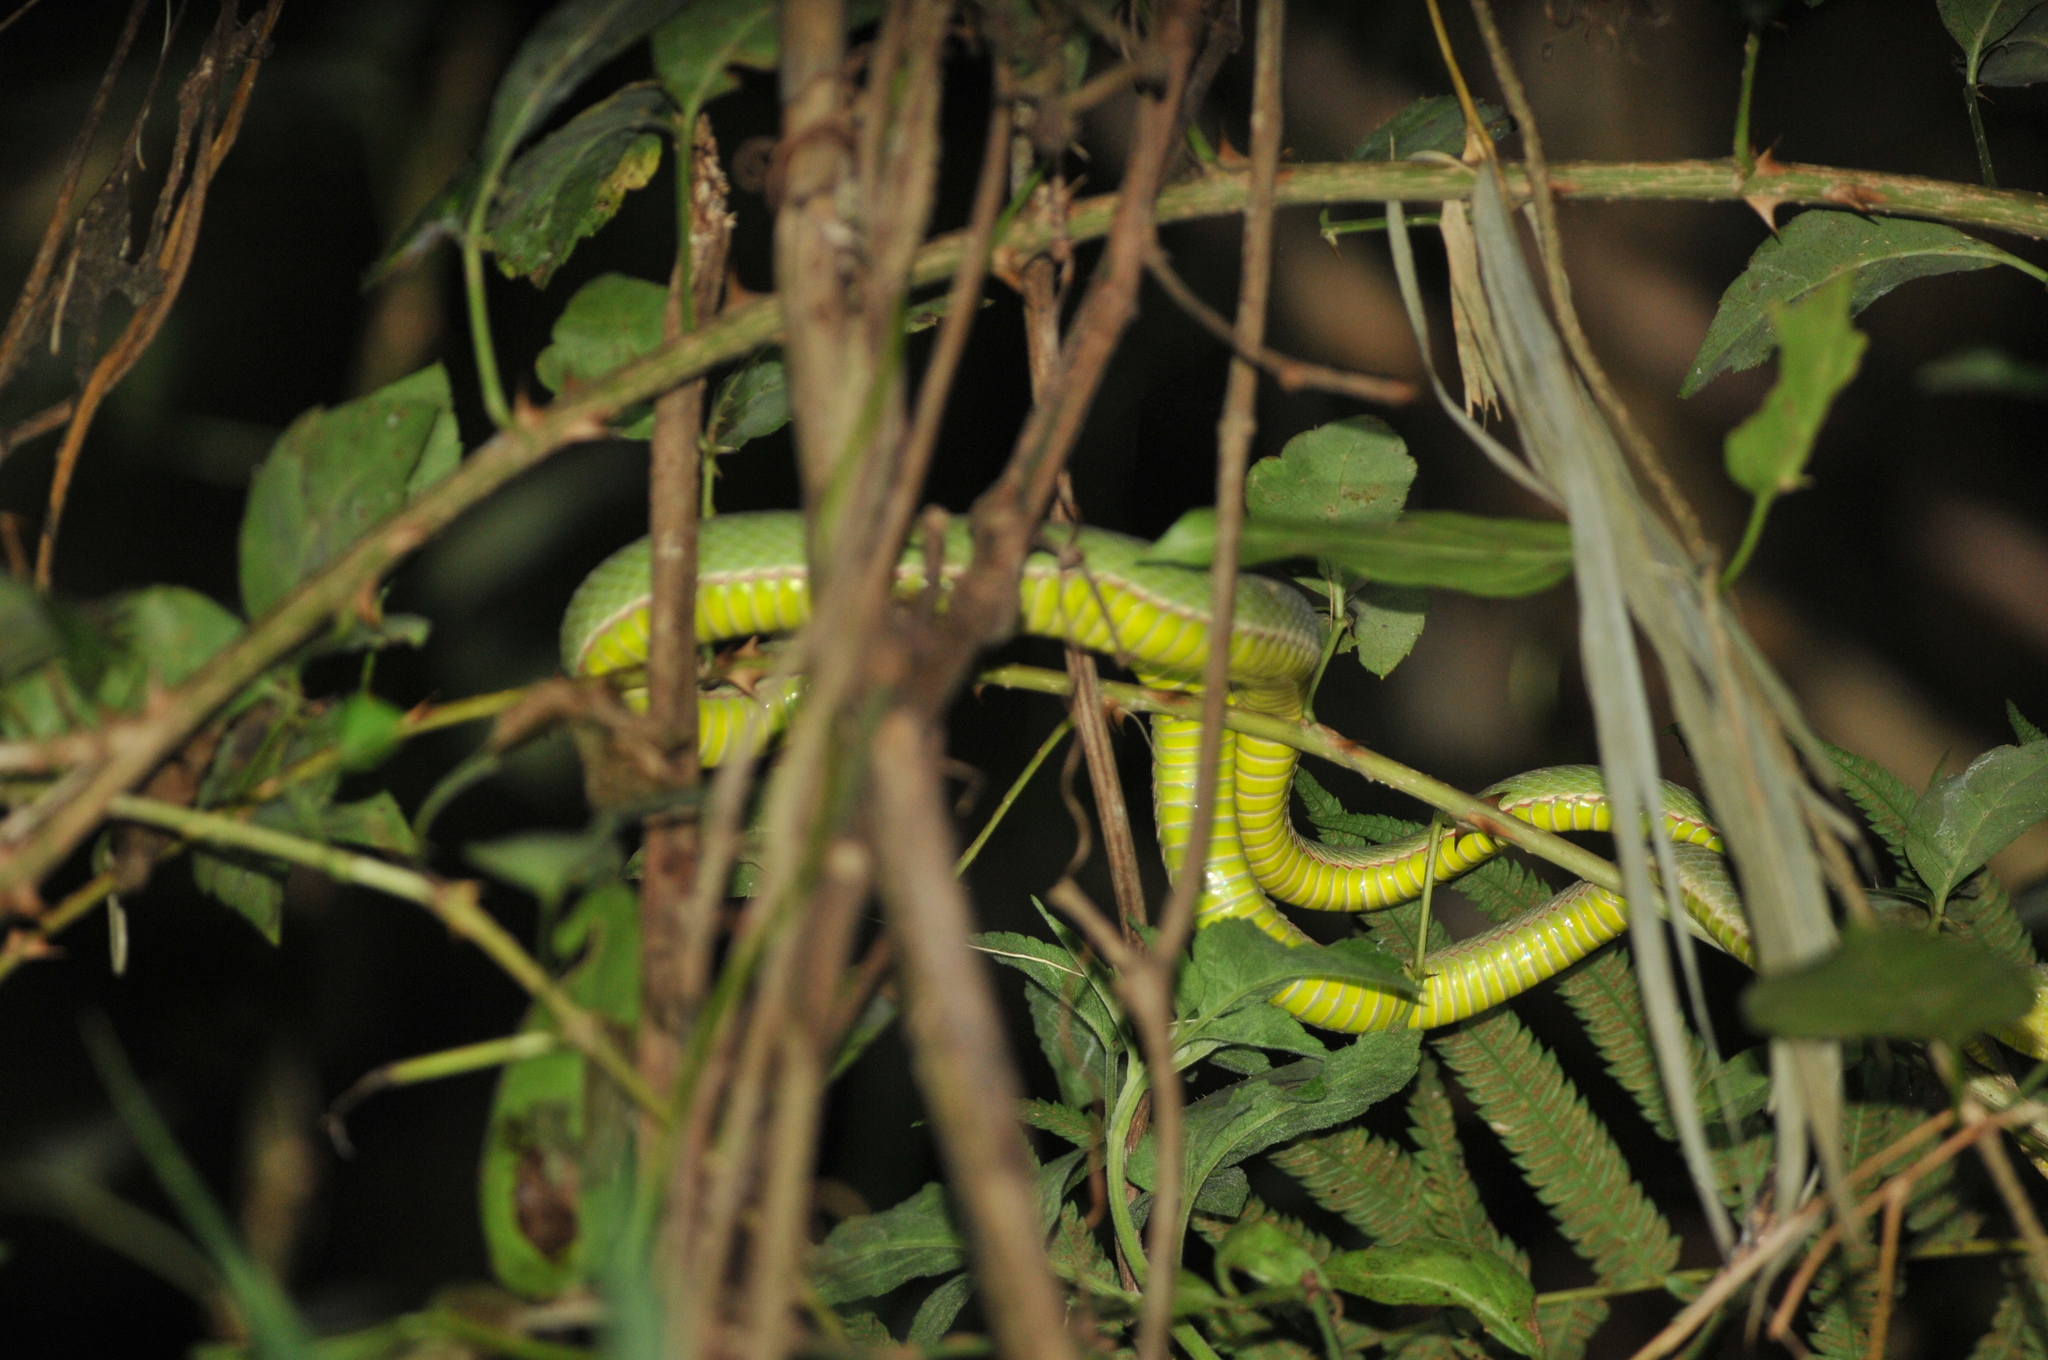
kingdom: Animalia
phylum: Chordata
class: Squamata
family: Viperidae
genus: Trimeresurus
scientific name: Trimeresurus stejnegeri
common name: Chen’s bamboo pit viper
